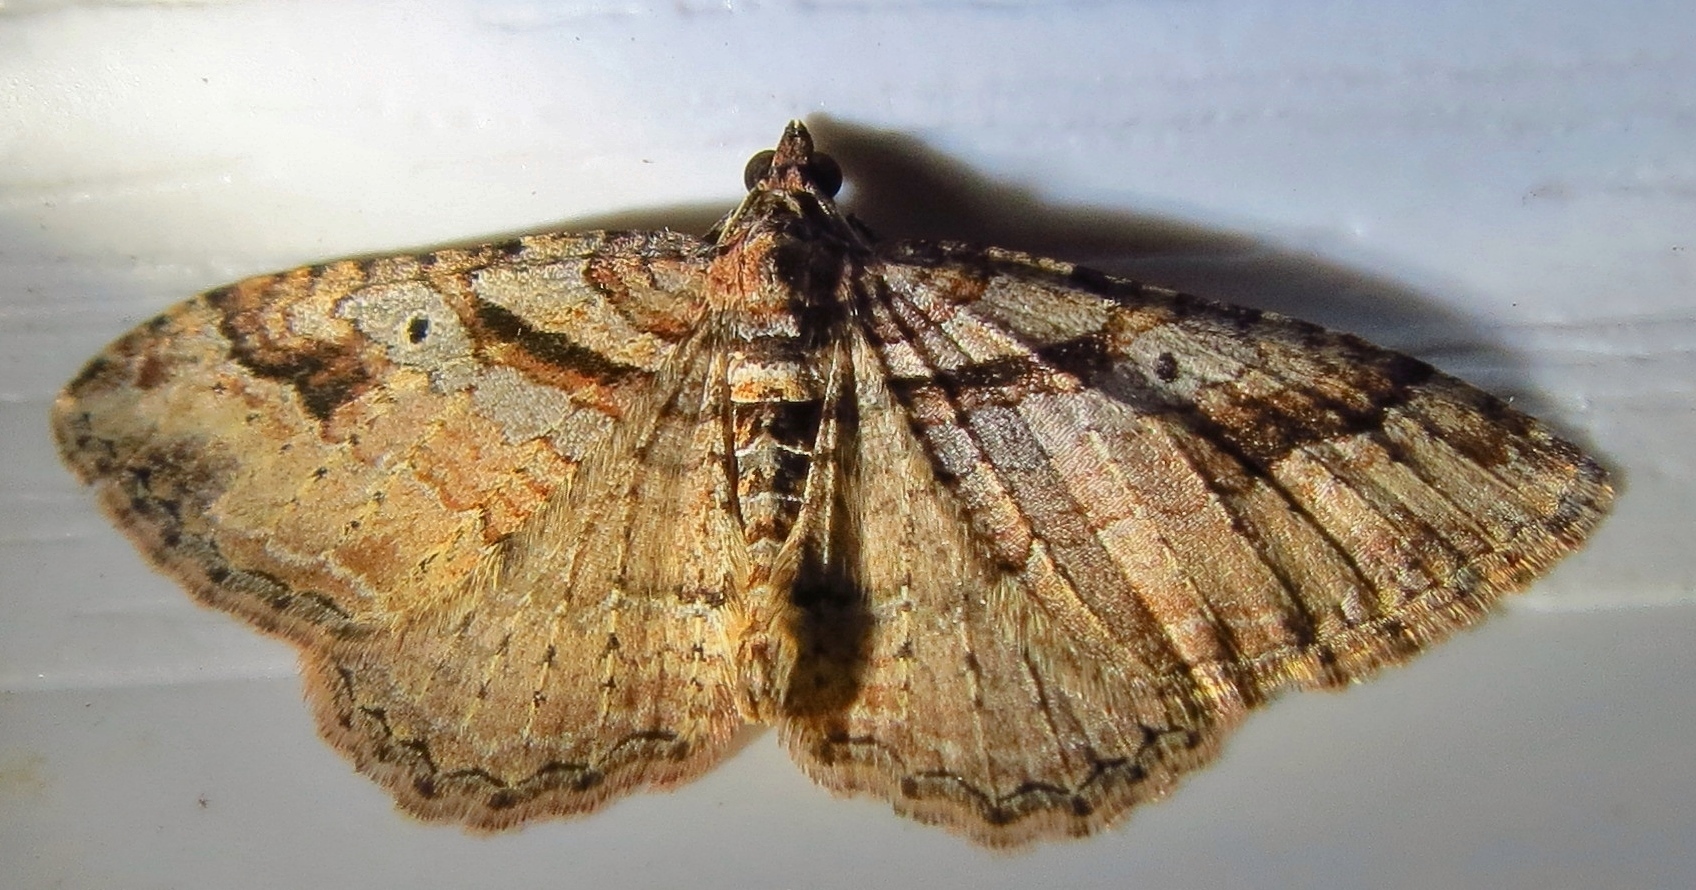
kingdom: Animalia
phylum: Arthropoda
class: Insecta
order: Lepidoptera
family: Geometridae
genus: Costaconvexa
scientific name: Costaconvexa centrostrigaria
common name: Bent-line carpet
